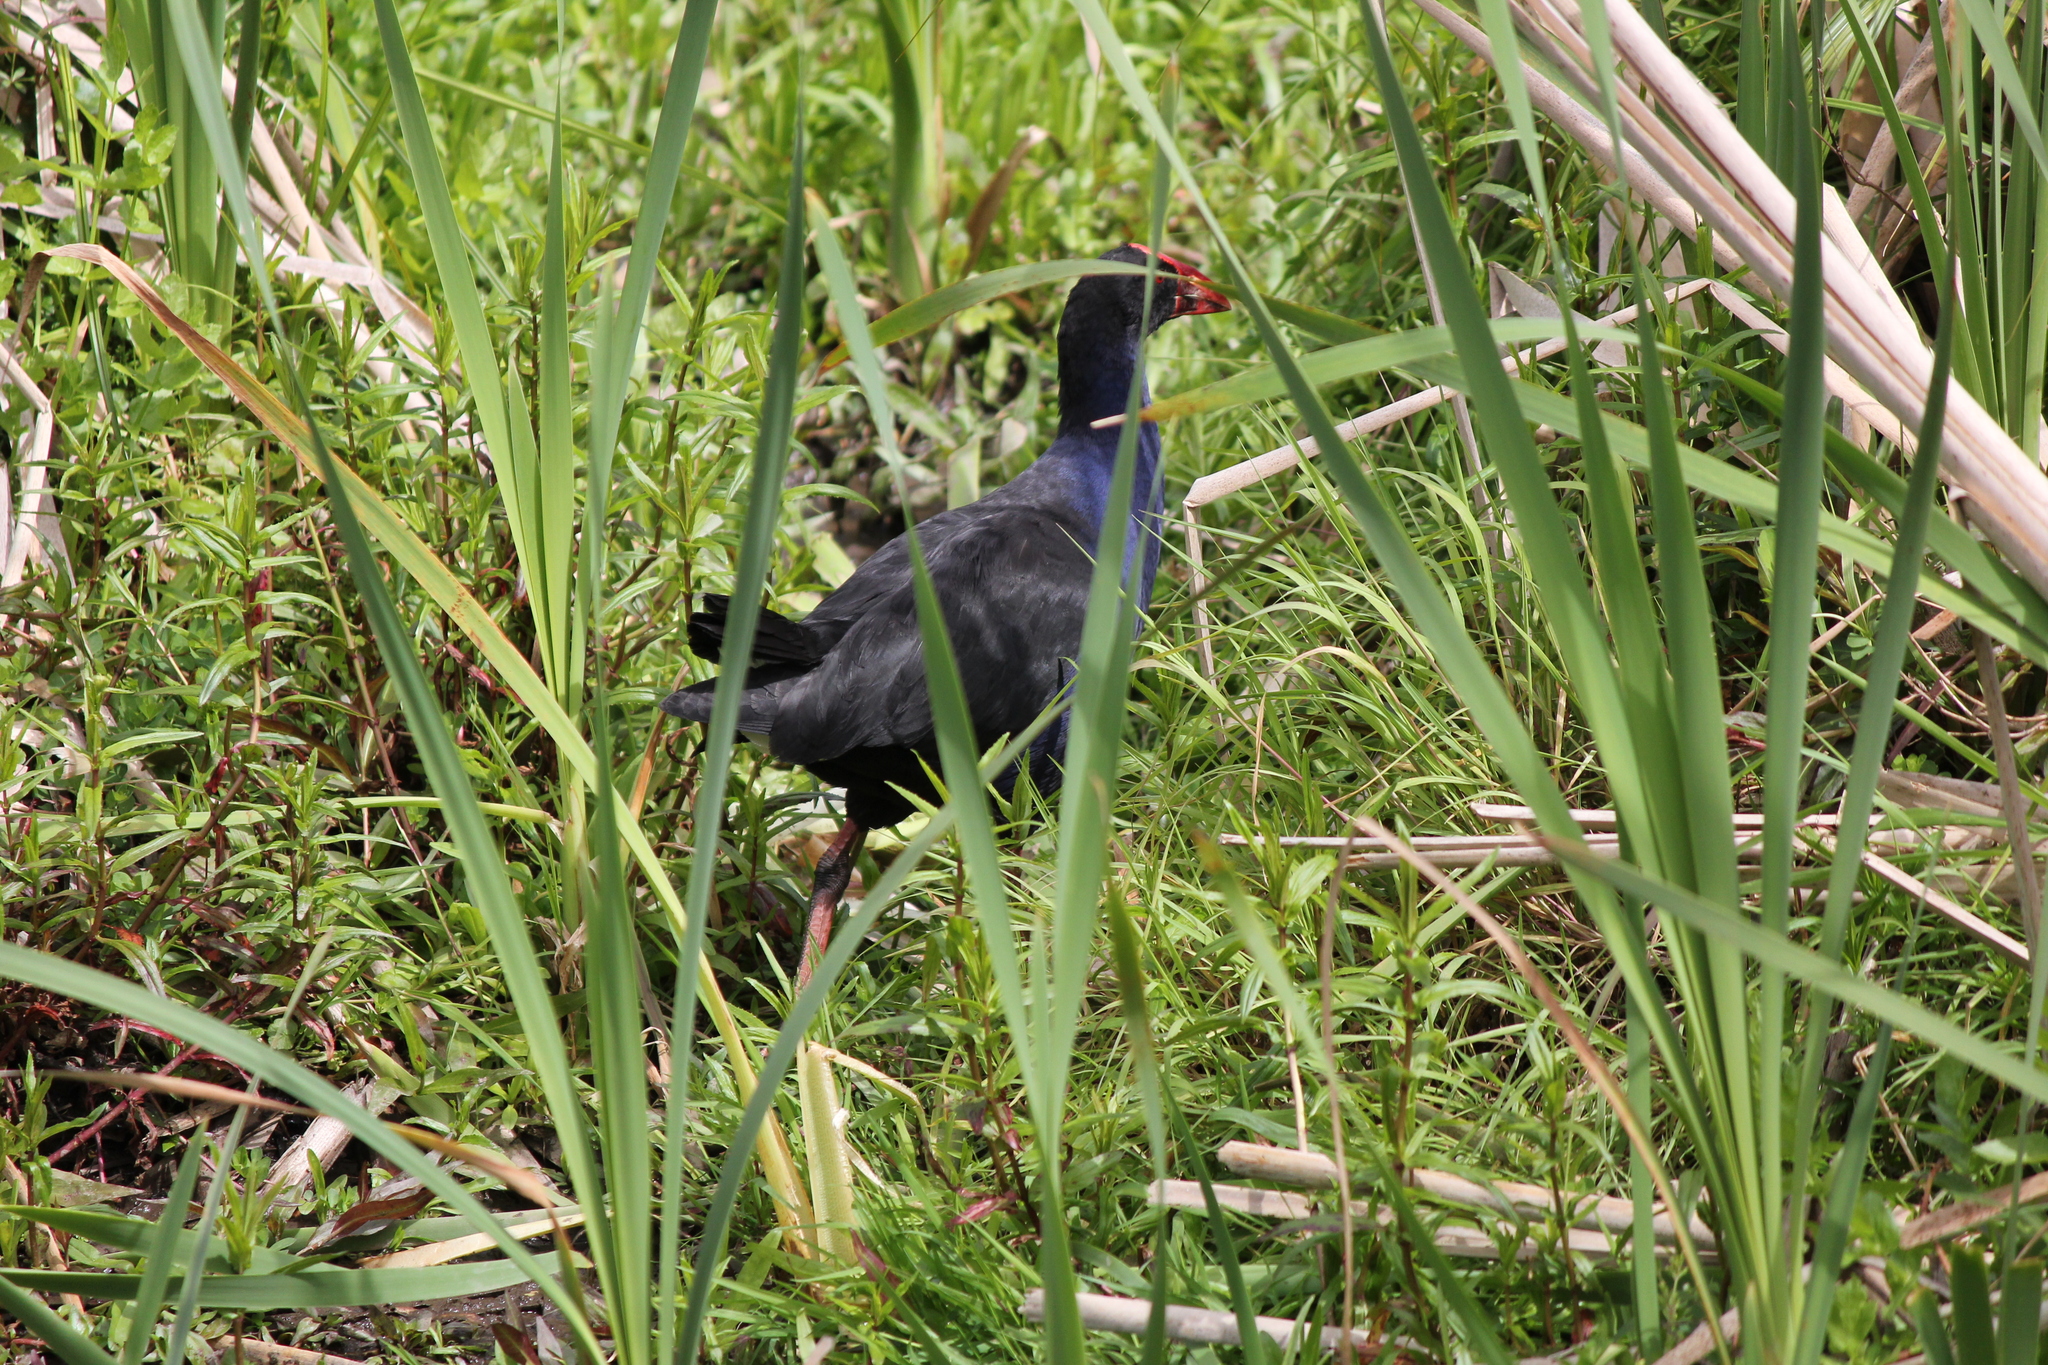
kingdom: Animalia
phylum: Chordata
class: Aves
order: Gruiformes
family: Rallidae
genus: Porphyrio
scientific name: Porphyrio melanotus
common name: Australasian swamphen
